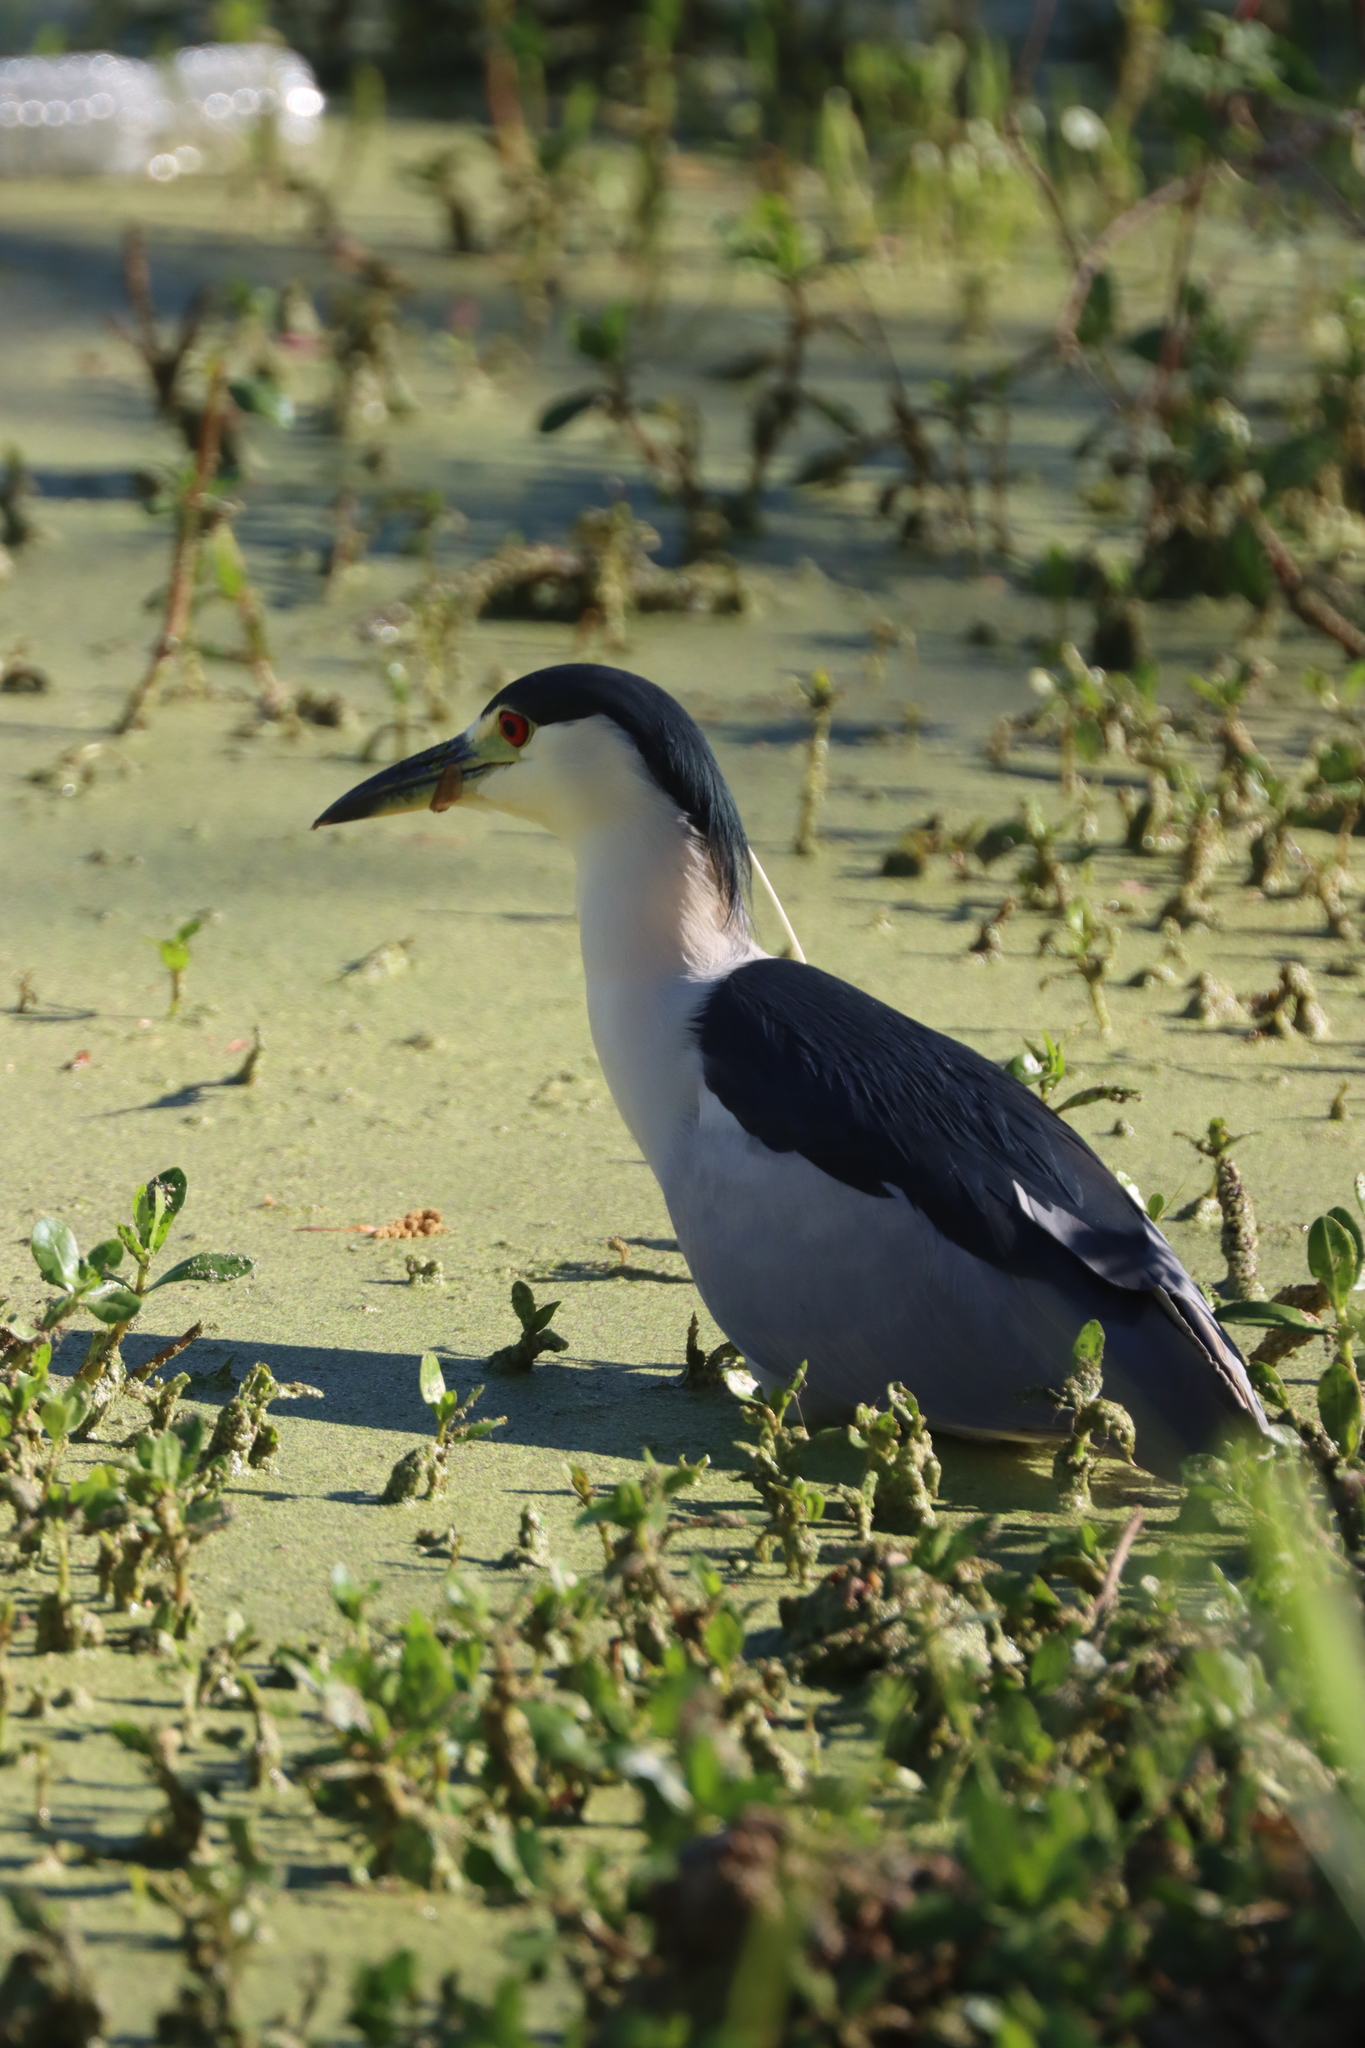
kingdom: Animalia
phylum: Chordata
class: Aves
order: Pelecaniformes
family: Ardeidae
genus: Nycticorax
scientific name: Nycticorax nycticorax
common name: Black-crowned night heron
